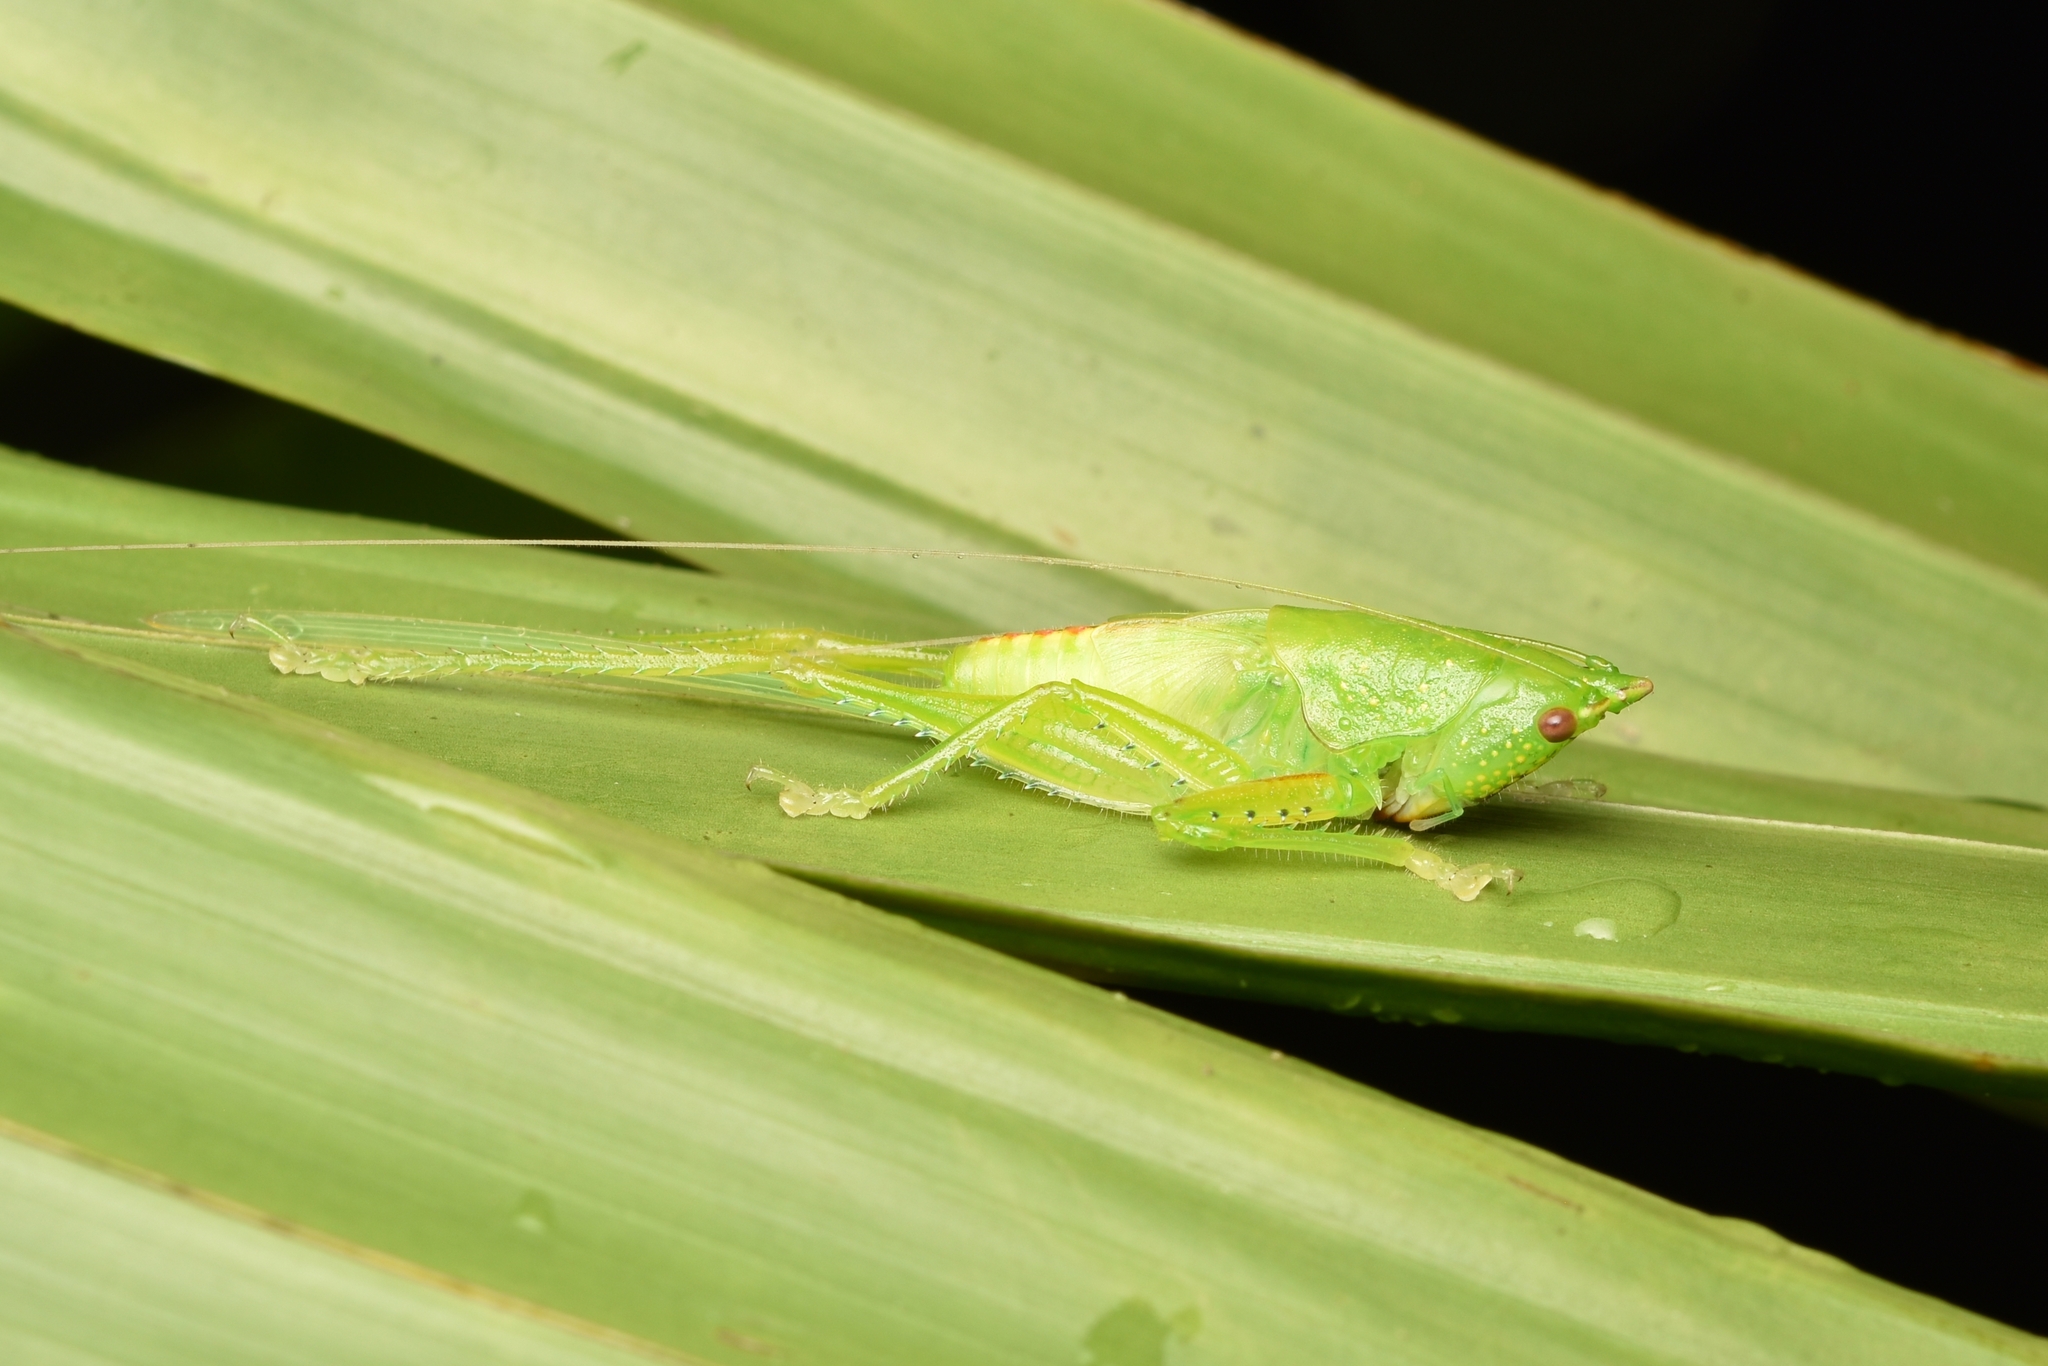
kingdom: Animalia
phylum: Arthropoda
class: Insecta
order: Orthoptera
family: Tettigoniidae
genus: Copiphora
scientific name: Copiphora ottei
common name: Otte's spear bearer
